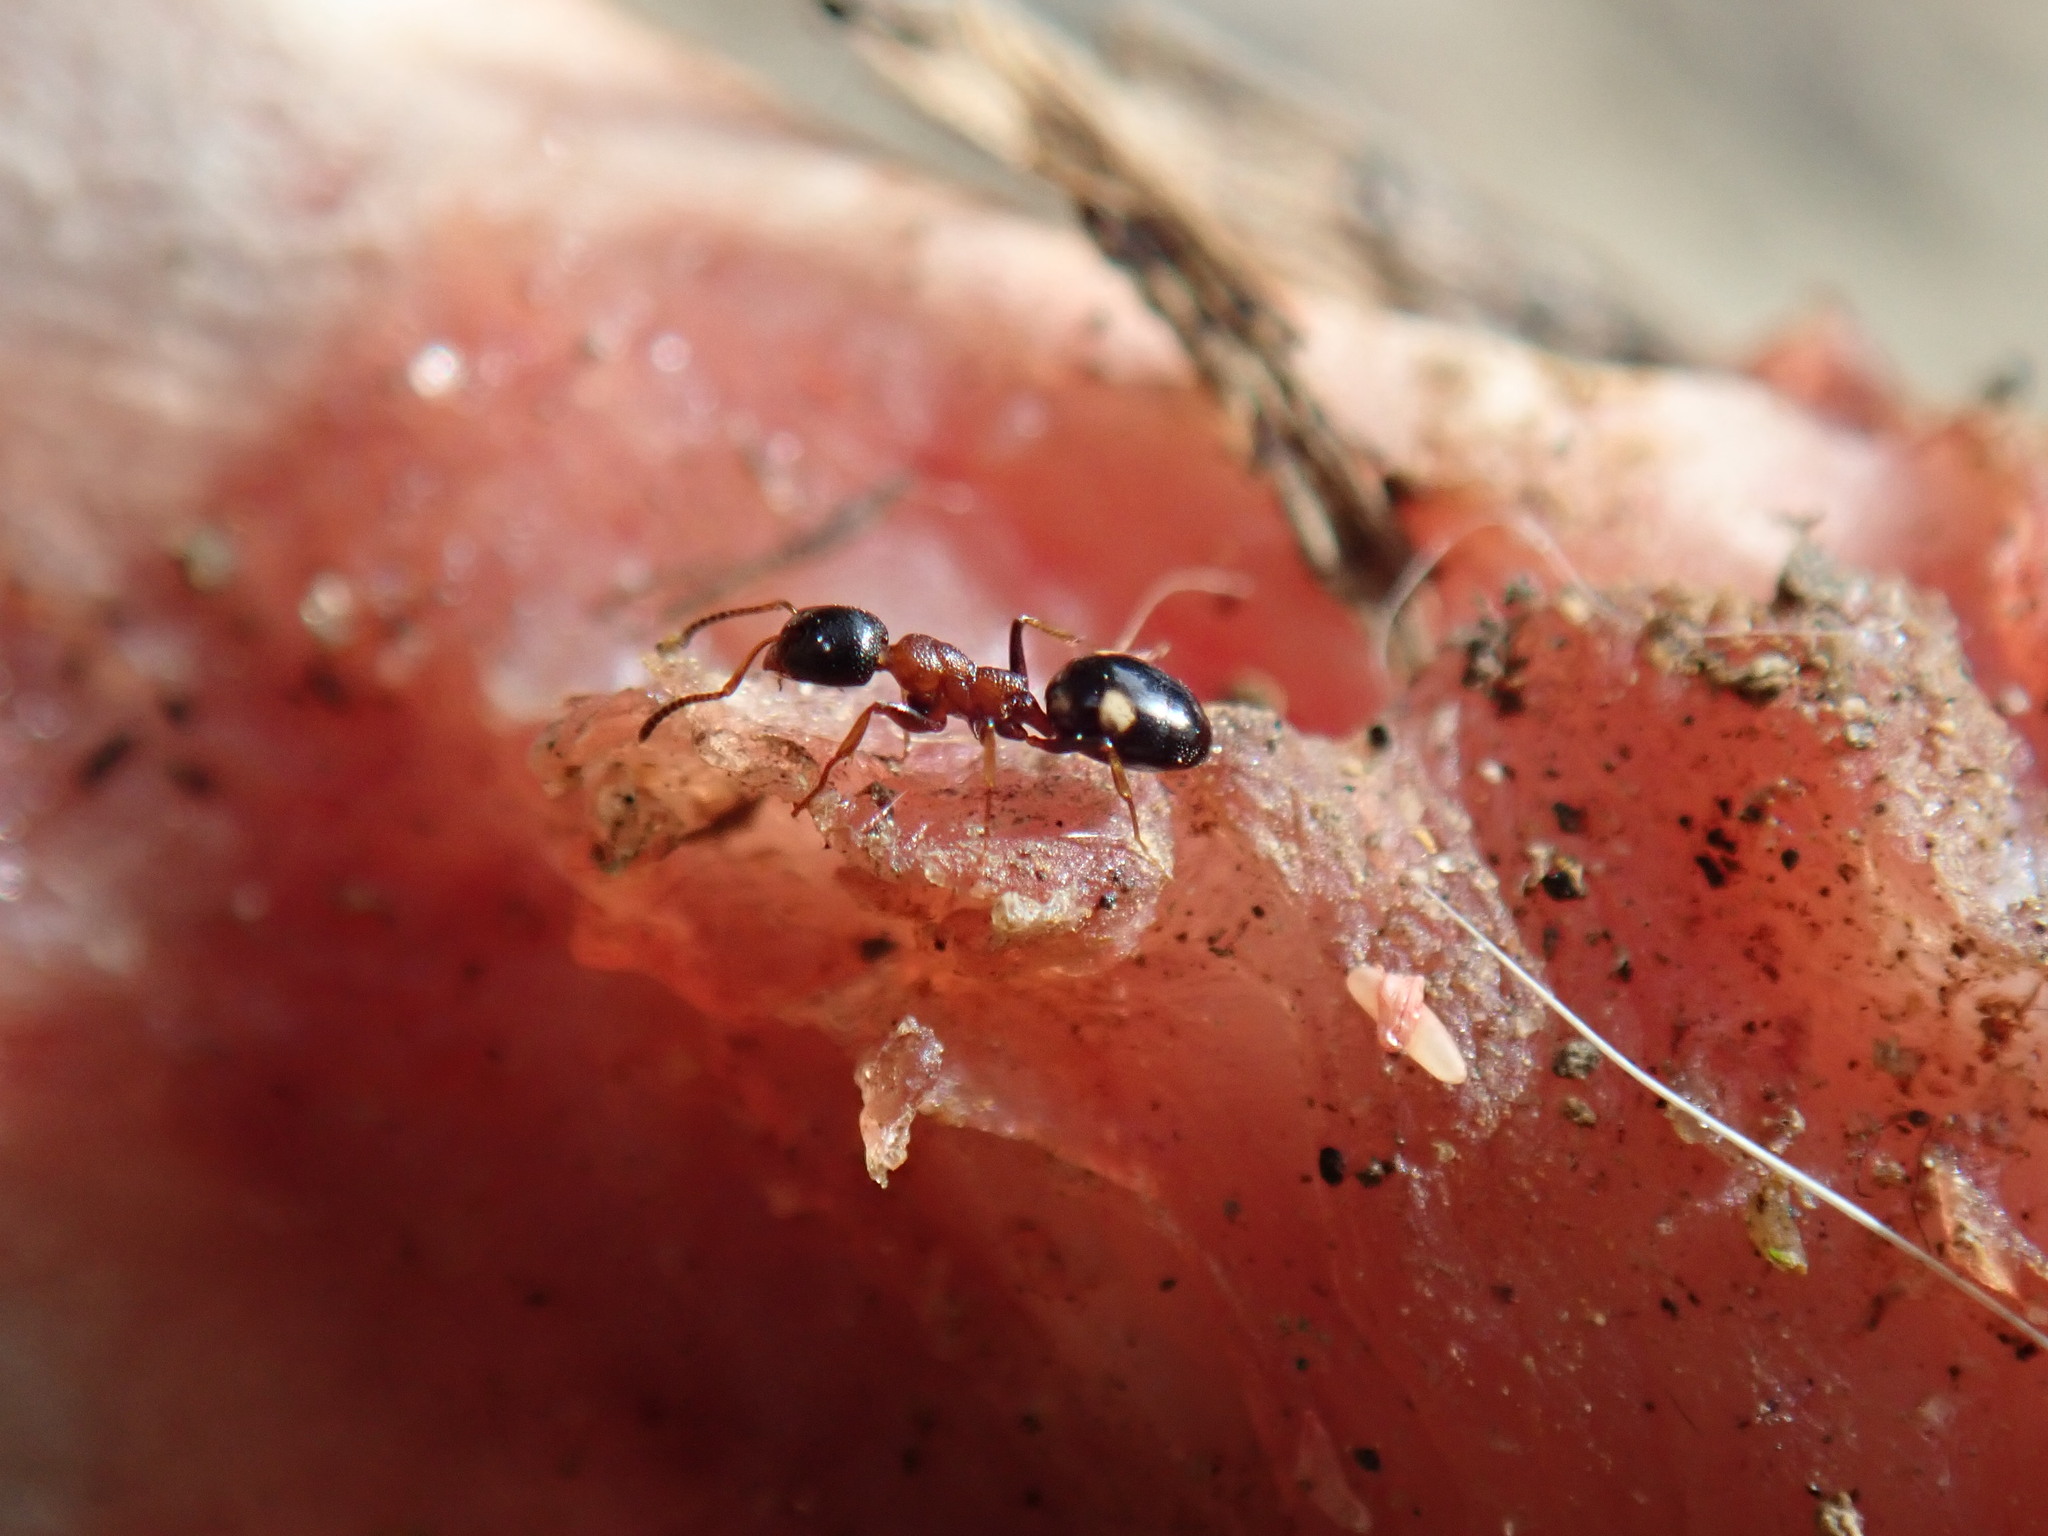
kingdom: Animalia
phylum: Arthropoda
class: Insecta
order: Hymenoptera
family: Formicidae
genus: Dolichoderus
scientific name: Dolichoderus quadripunctatus
